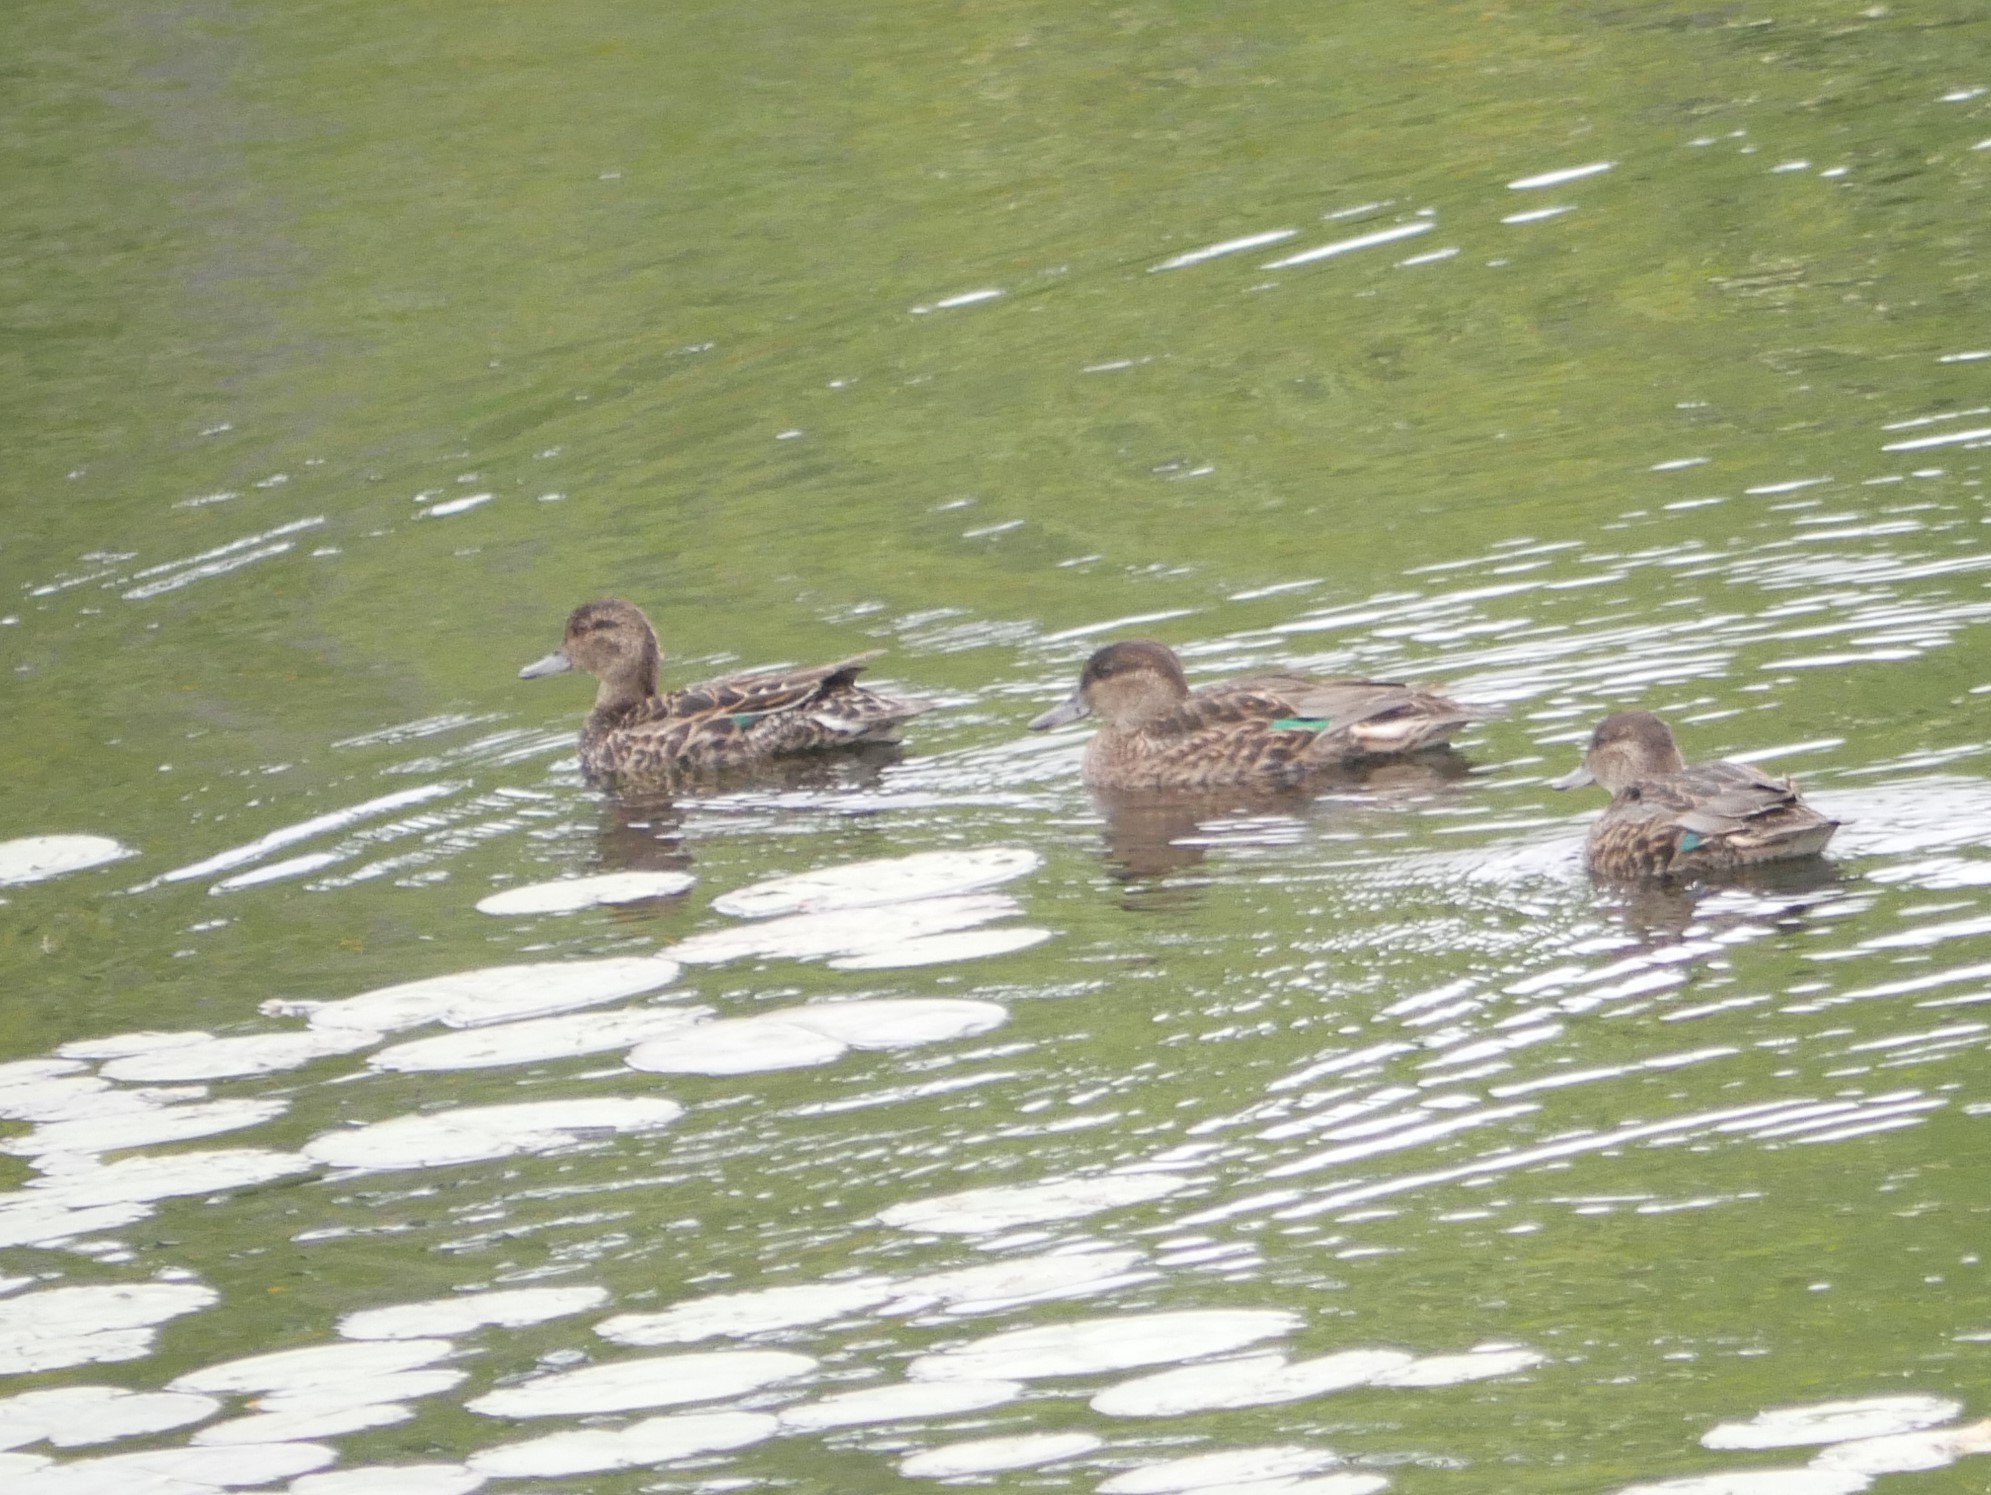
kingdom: Animalia
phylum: Chordata
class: Aves
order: Anseriformes
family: Anatidae
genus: Anas
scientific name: Anas carolinensis
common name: Green-winged teal
